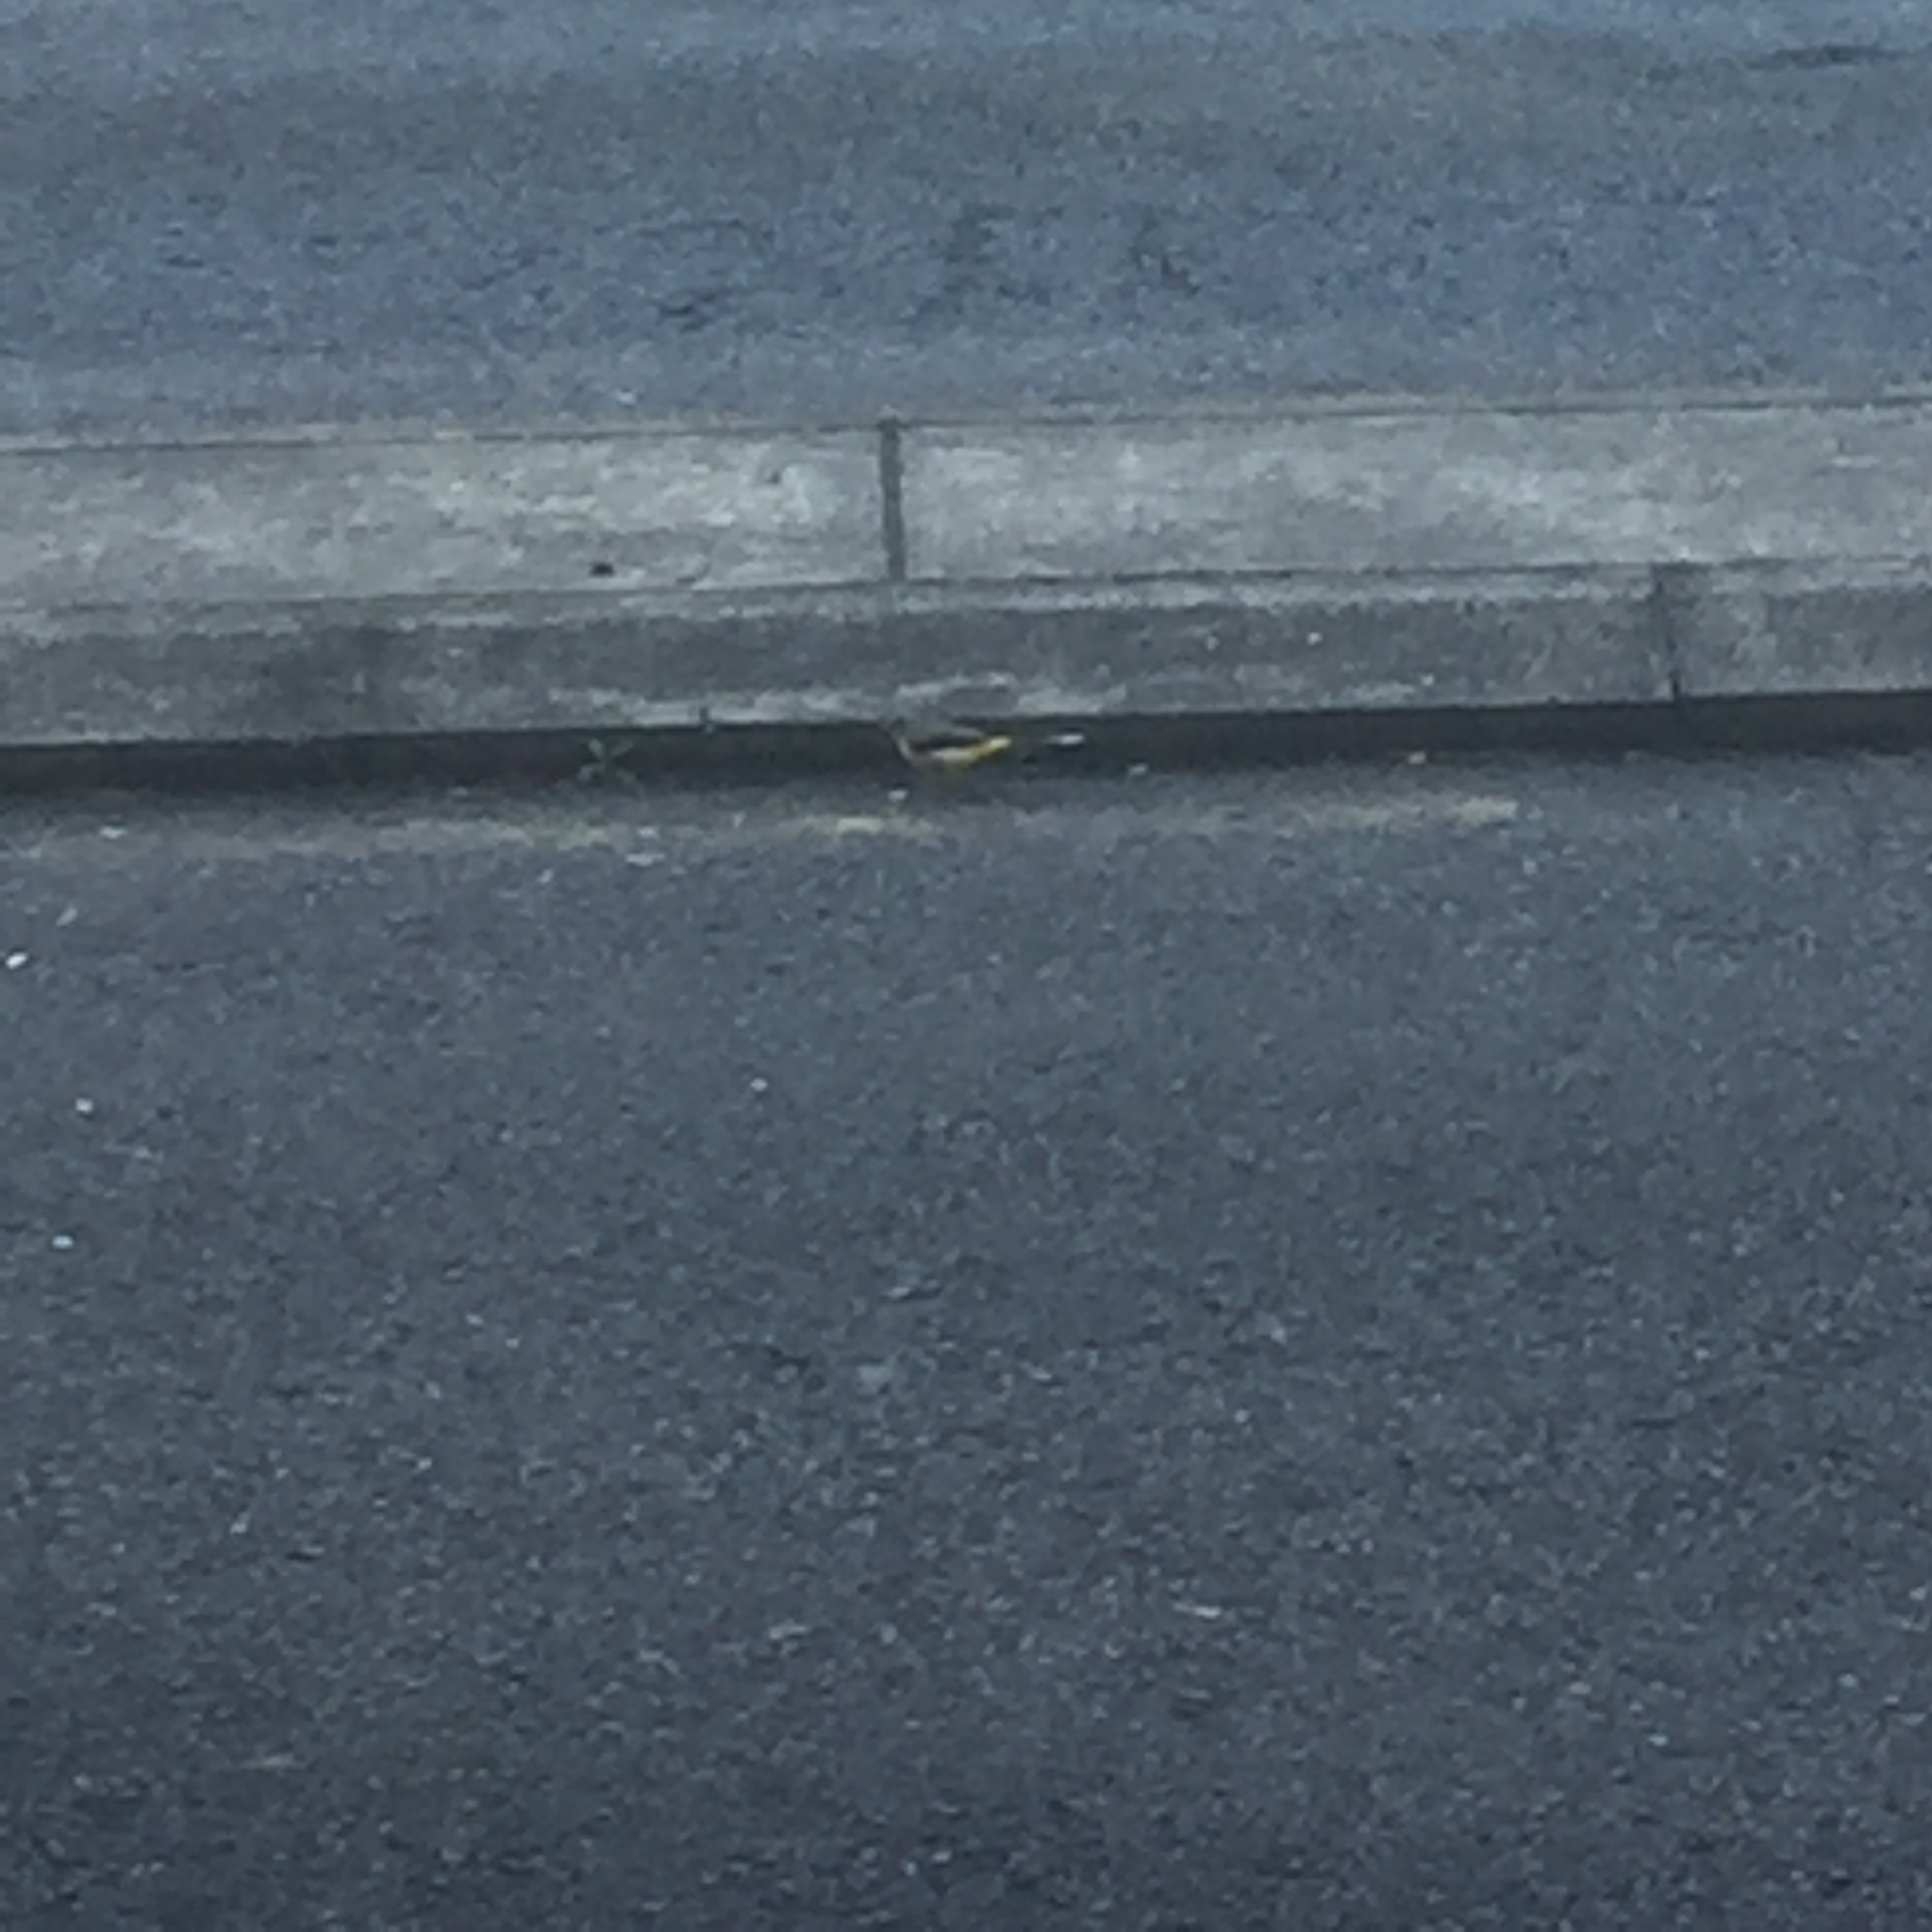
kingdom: Animalia
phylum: Chordata
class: Aves
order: Passeriformes
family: Motacillidae
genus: Motacilla
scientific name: Motacilla cinerea
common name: Grey wagtail
